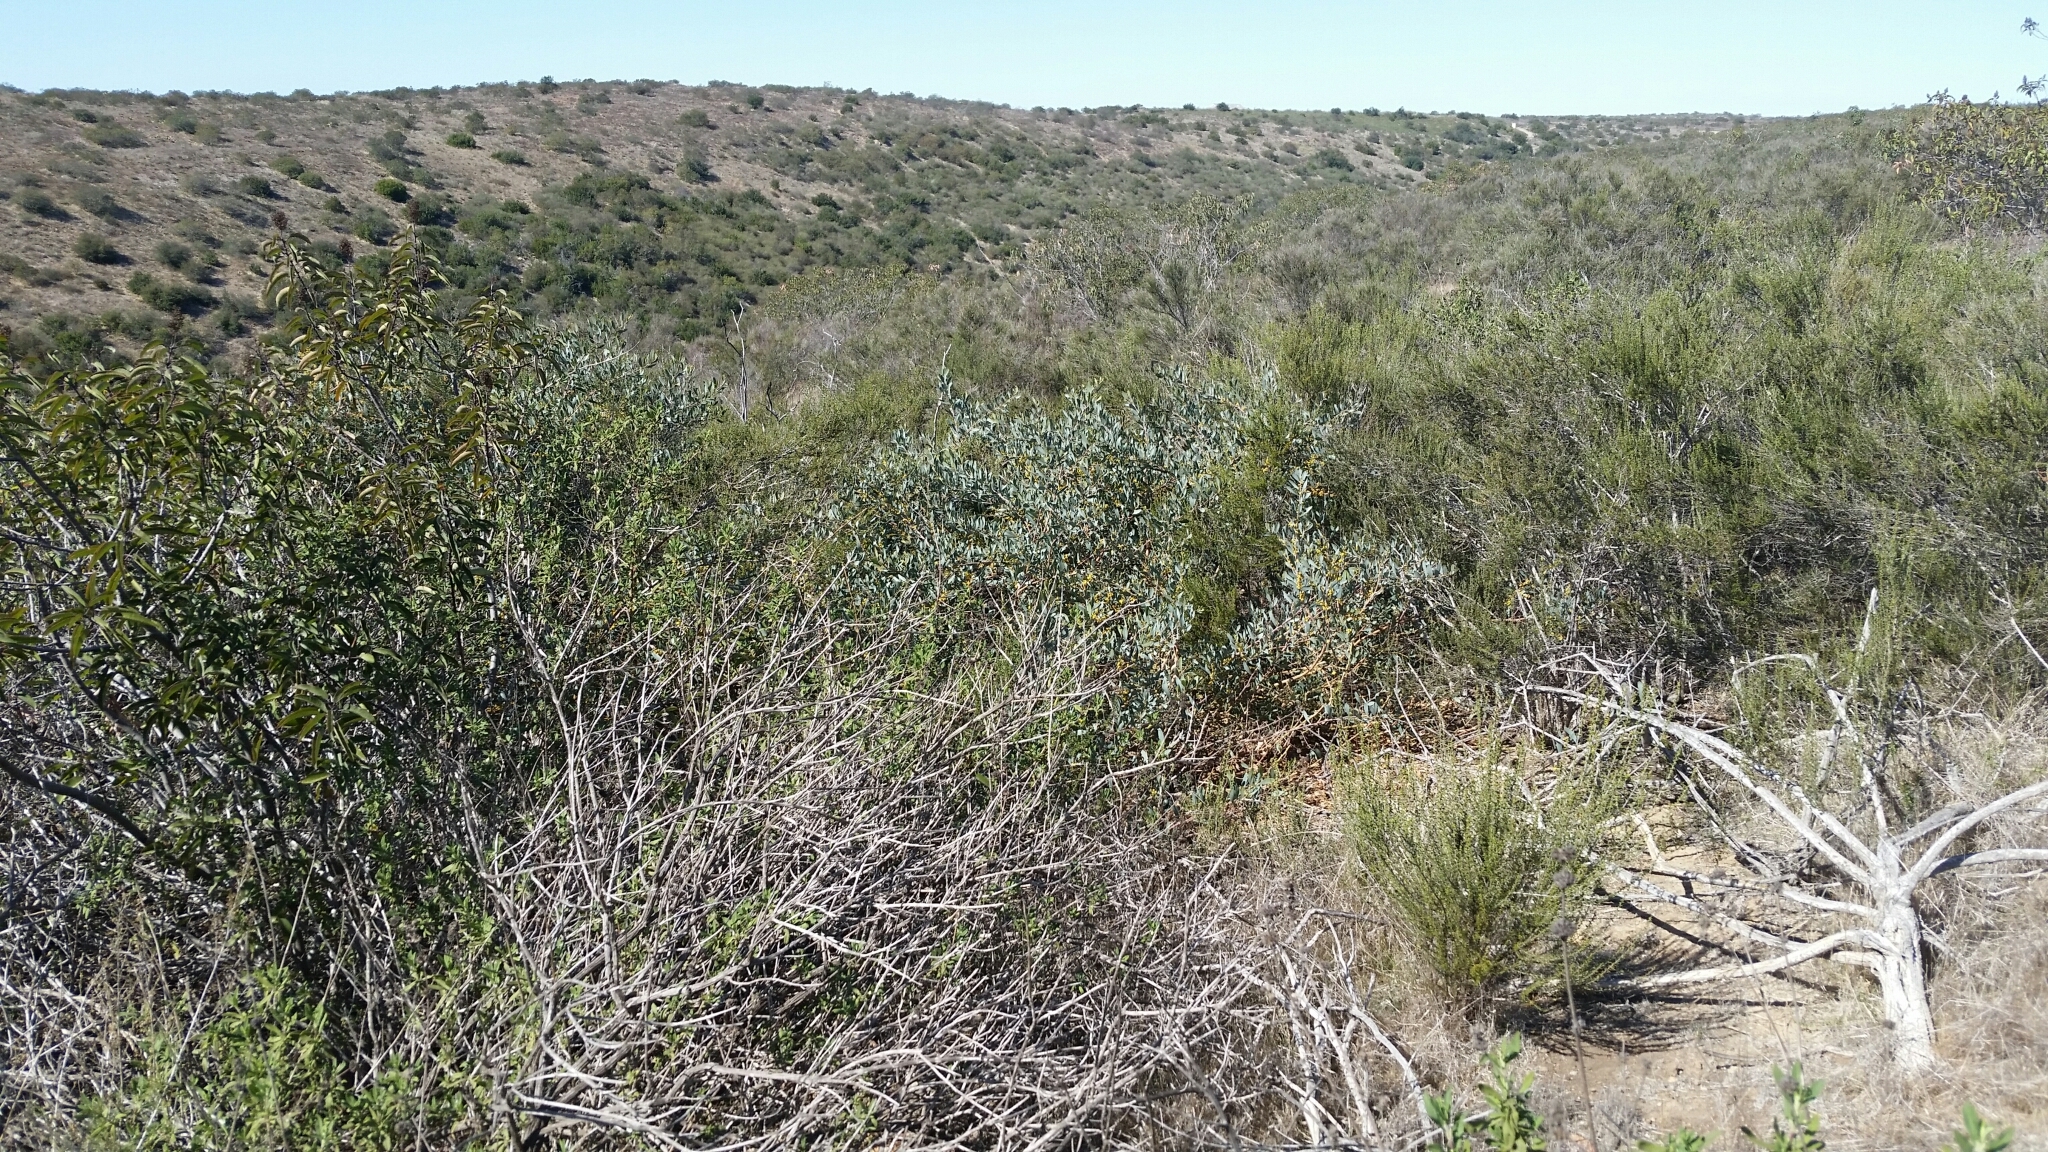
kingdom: Plantae
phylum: Tracheophyta
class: Magnoliopsida
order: Fabales
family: Fabaceae
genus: Acacia
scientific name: Acacia redolens
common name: Bank catclaw
